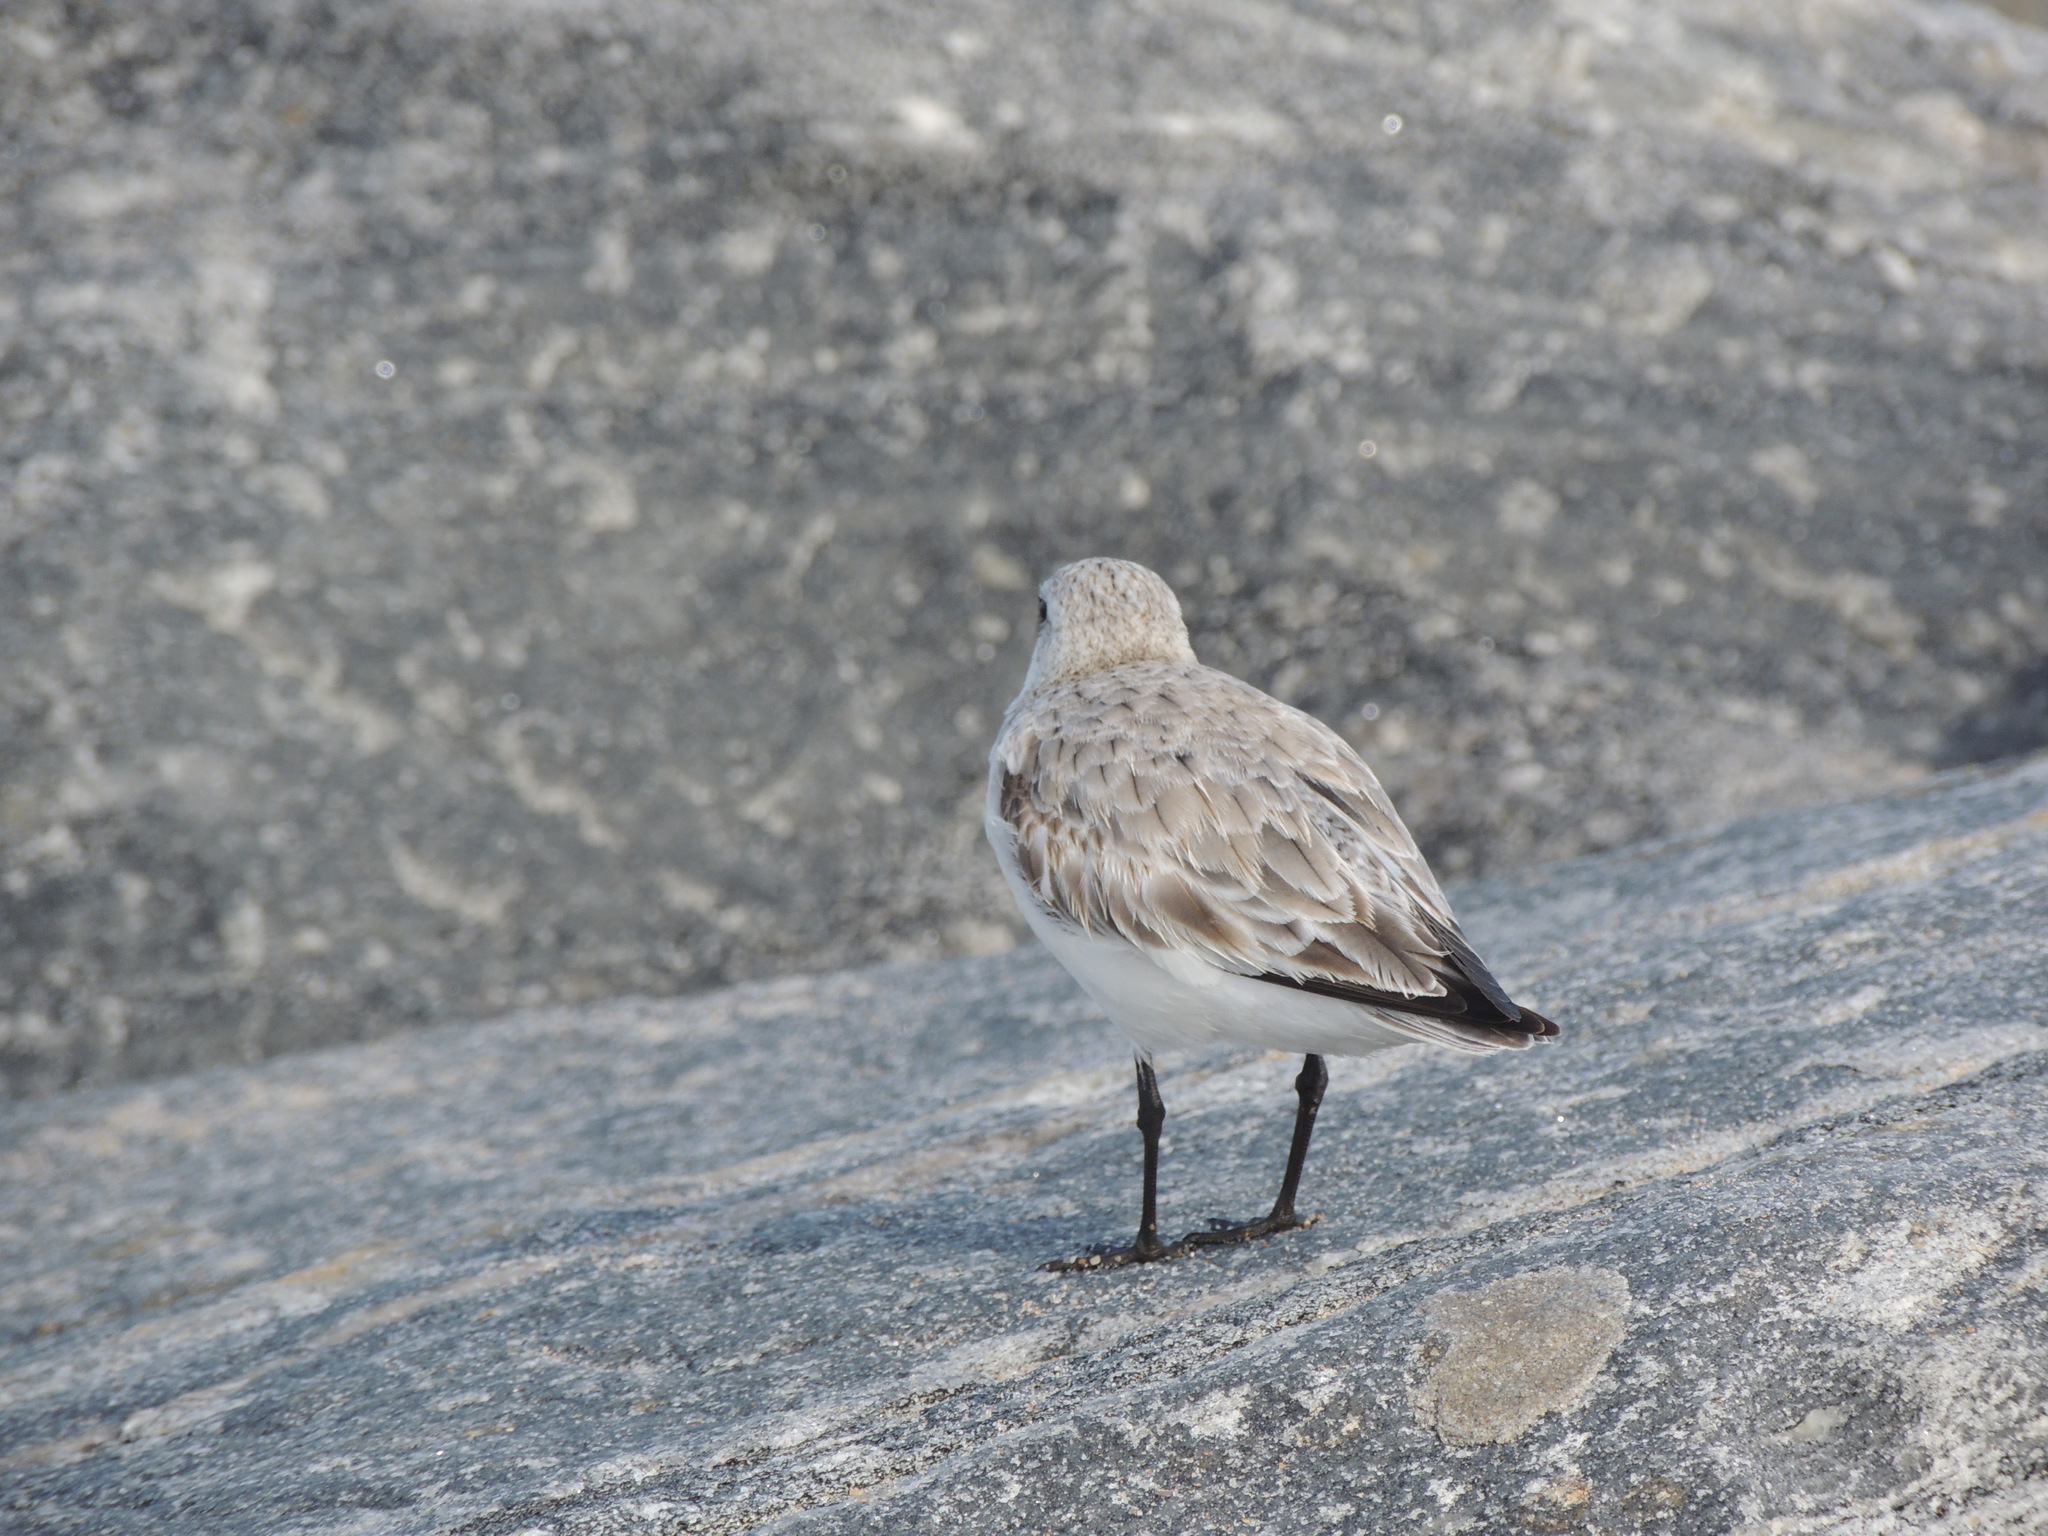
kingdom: Animalia
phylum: Chordata
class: Aves
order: Charadriiformes
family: Scolopacidae
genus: Calidris
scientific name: Calidris alba
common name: Sanderling
